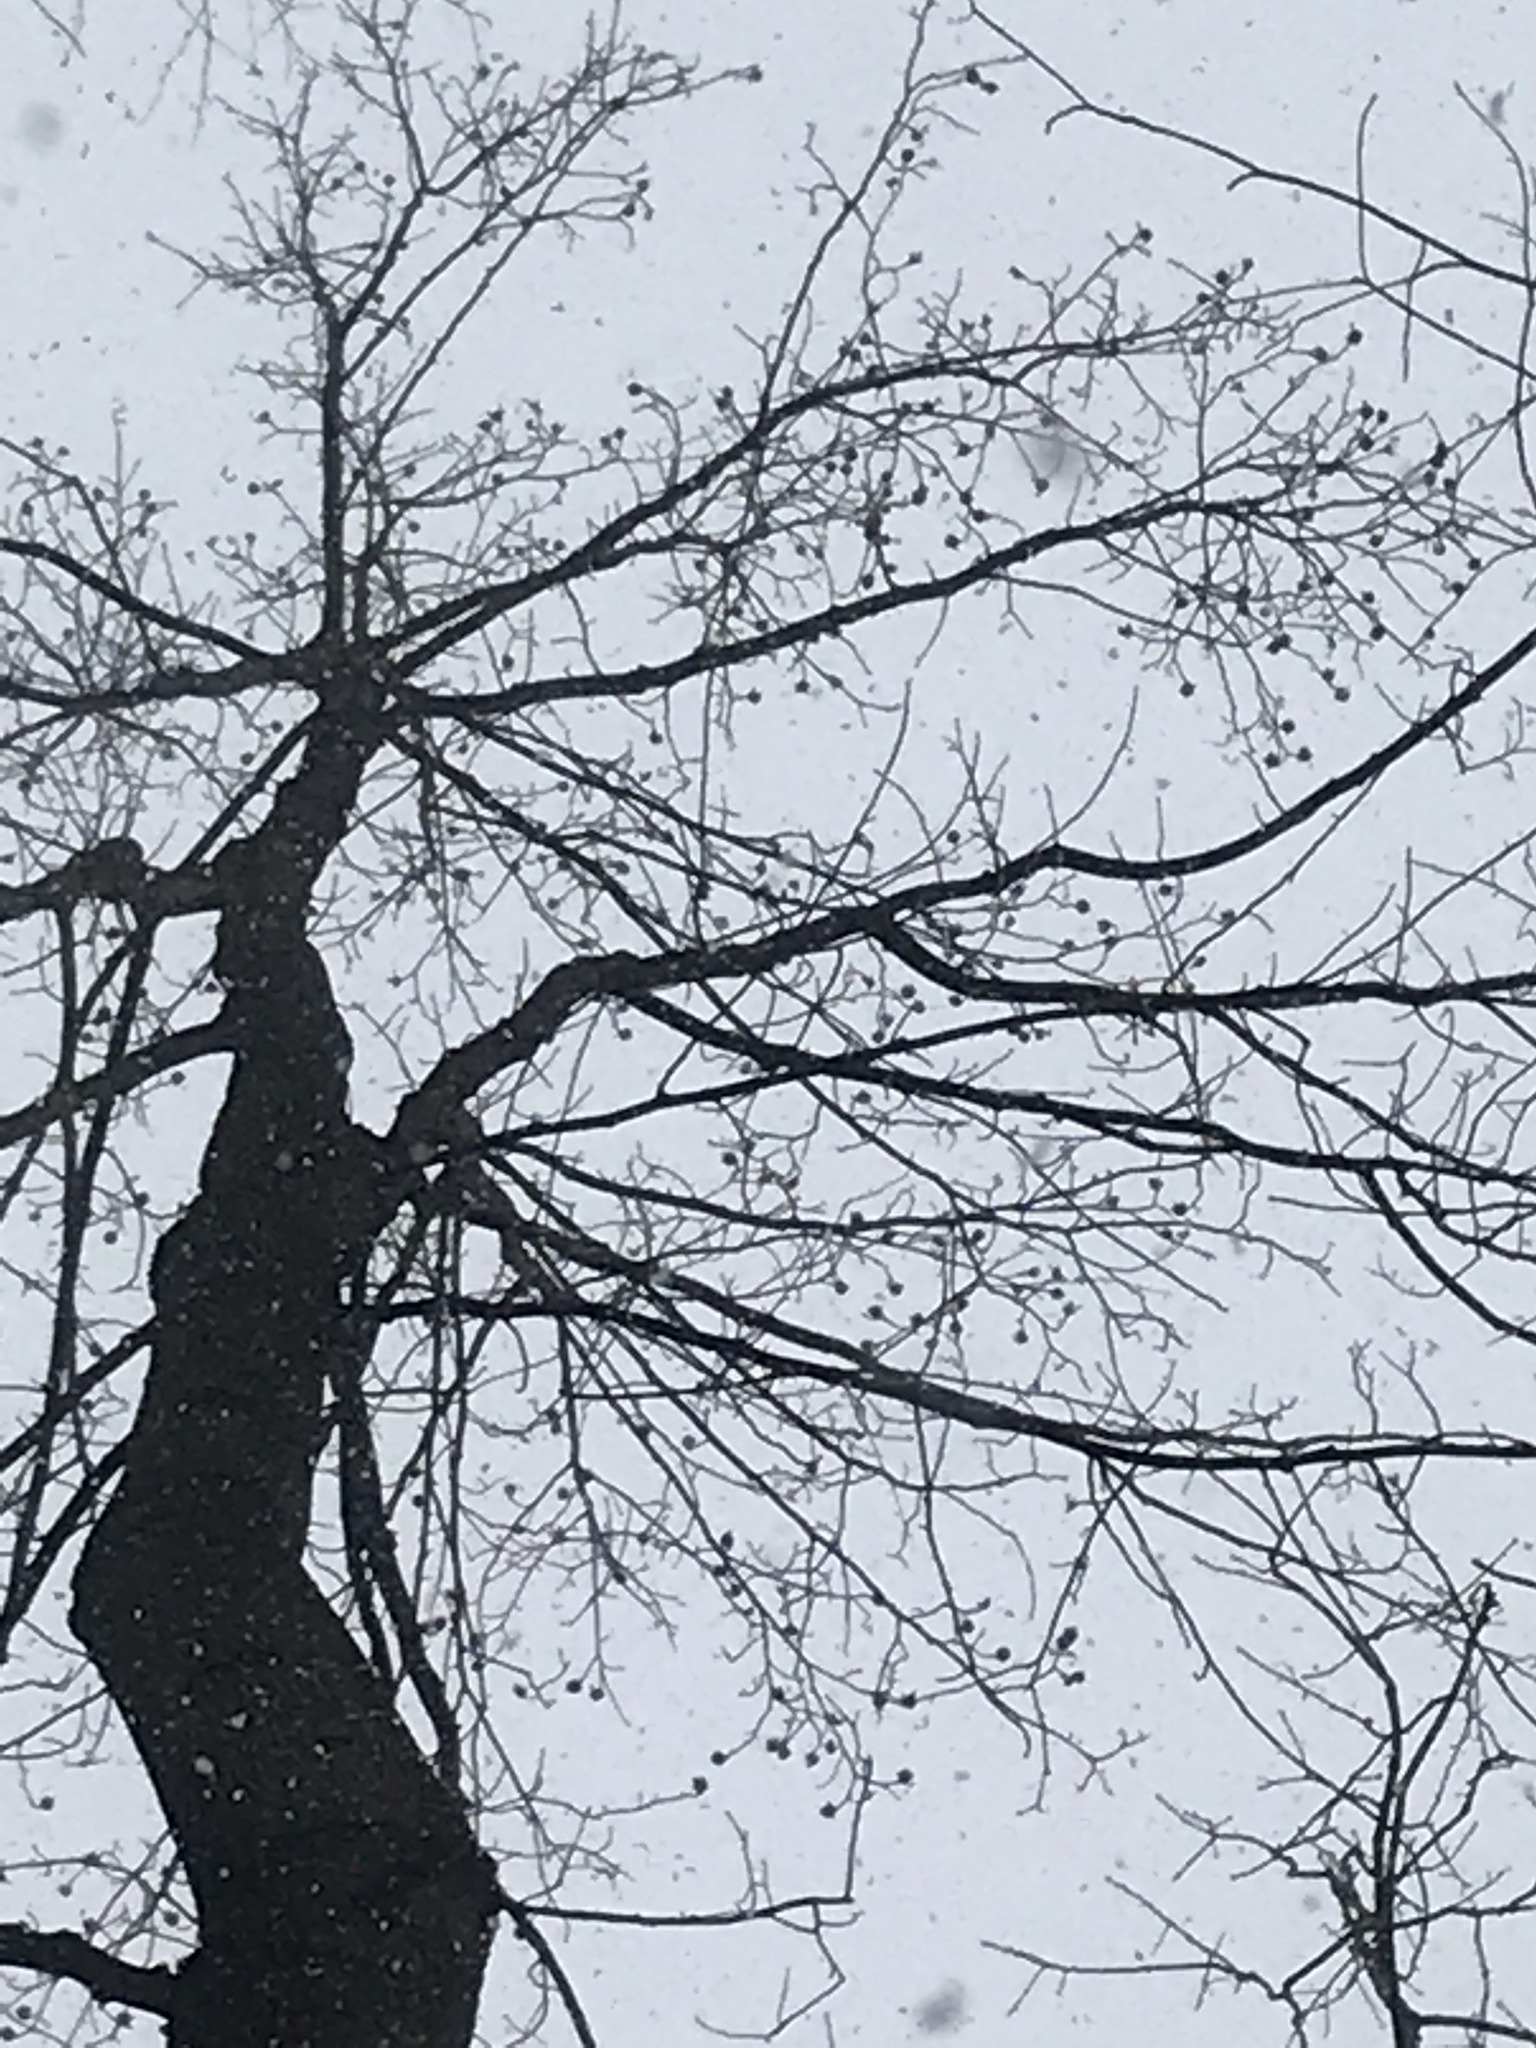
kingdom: Plantae
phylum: Tracheophyta
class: Magnoliopsida
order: Magnoliales
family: Magnoliaceae
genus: Liriodendron
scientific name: Liriodendron tulipifera
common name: Tulip tree
